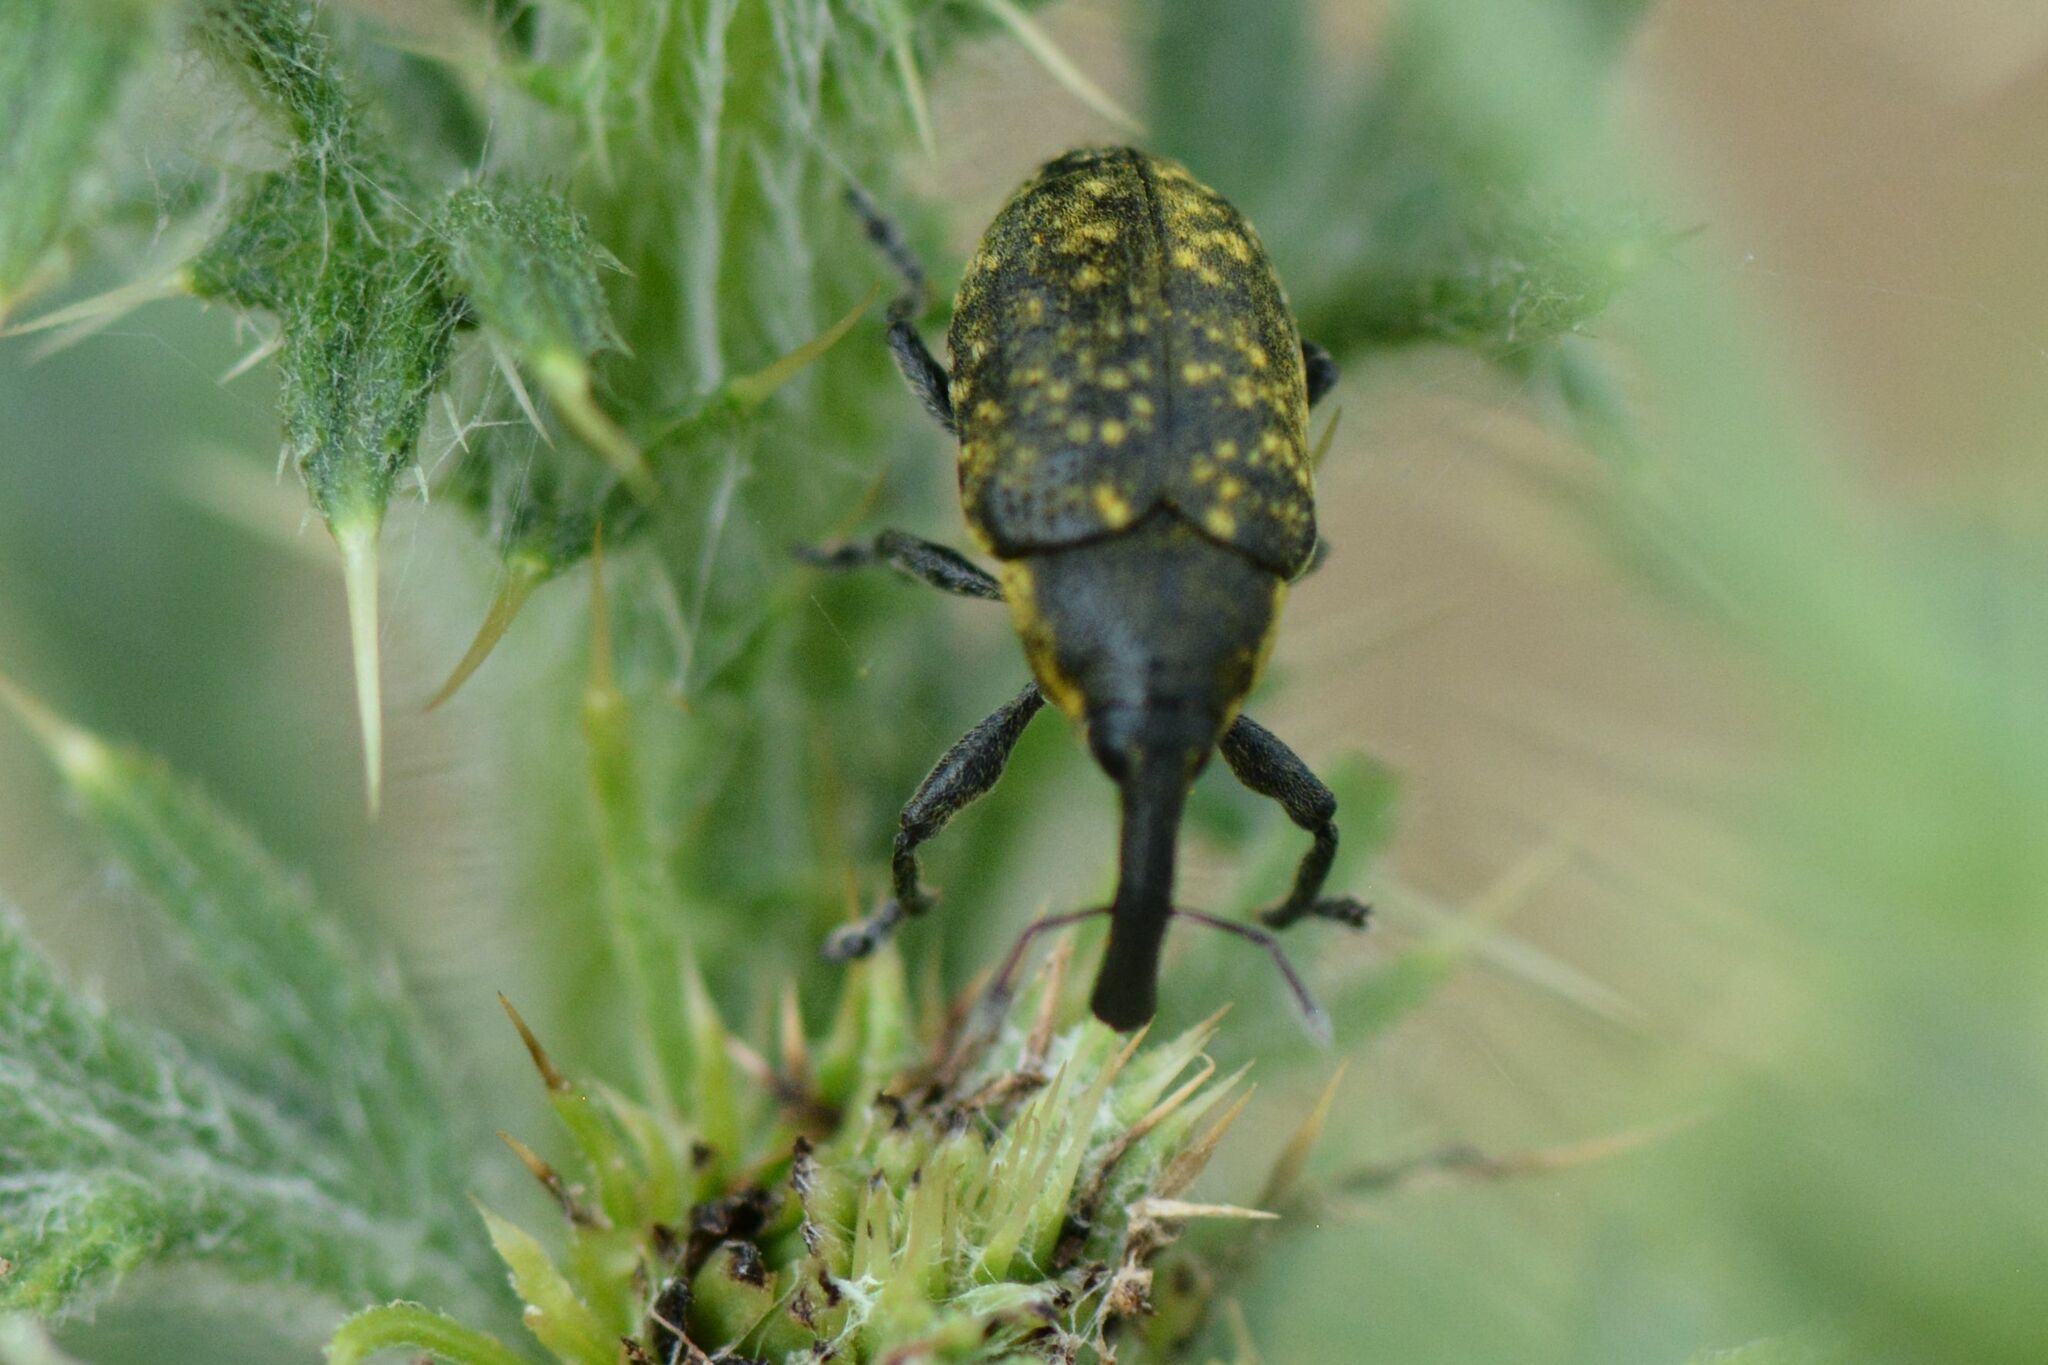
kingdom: Animalia
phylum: Arthropoda
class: Insecta
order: Coleoptera
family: Curculionidae
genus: Larinus
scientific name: Larinus sturnus
